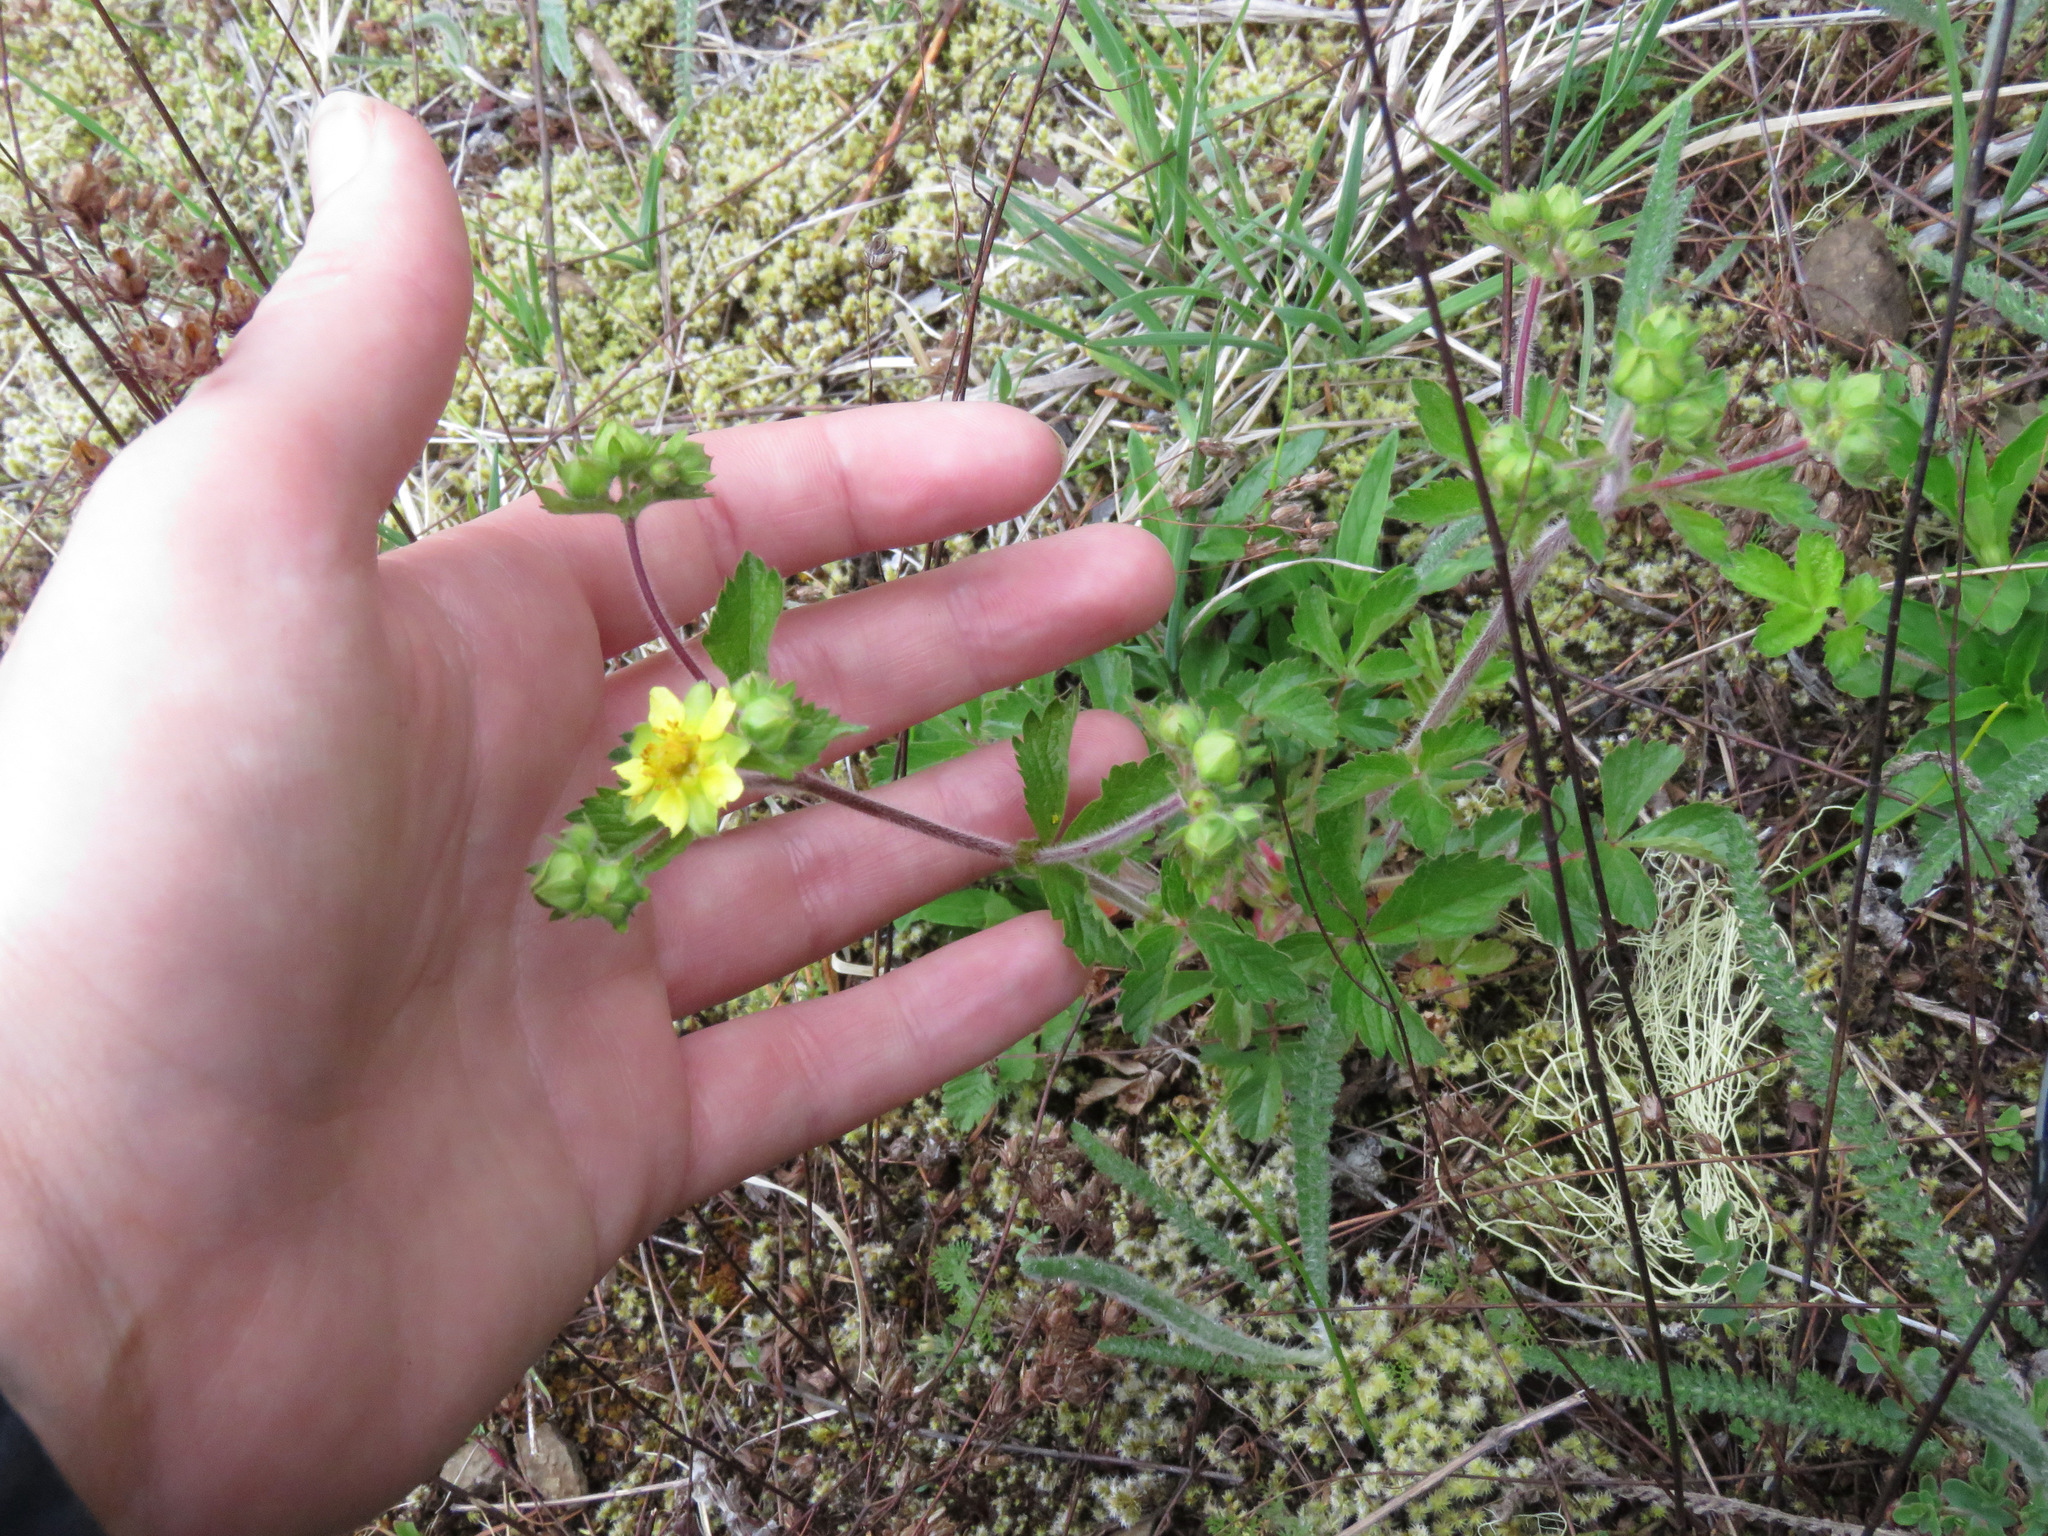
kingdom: Plantae
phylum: Tracheophyta
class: Magnoliopsida
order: Rosales
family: Rosaceae
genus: Drymocallis
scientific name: Drymocallis glandulosa
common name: Sticky cinquefoil
